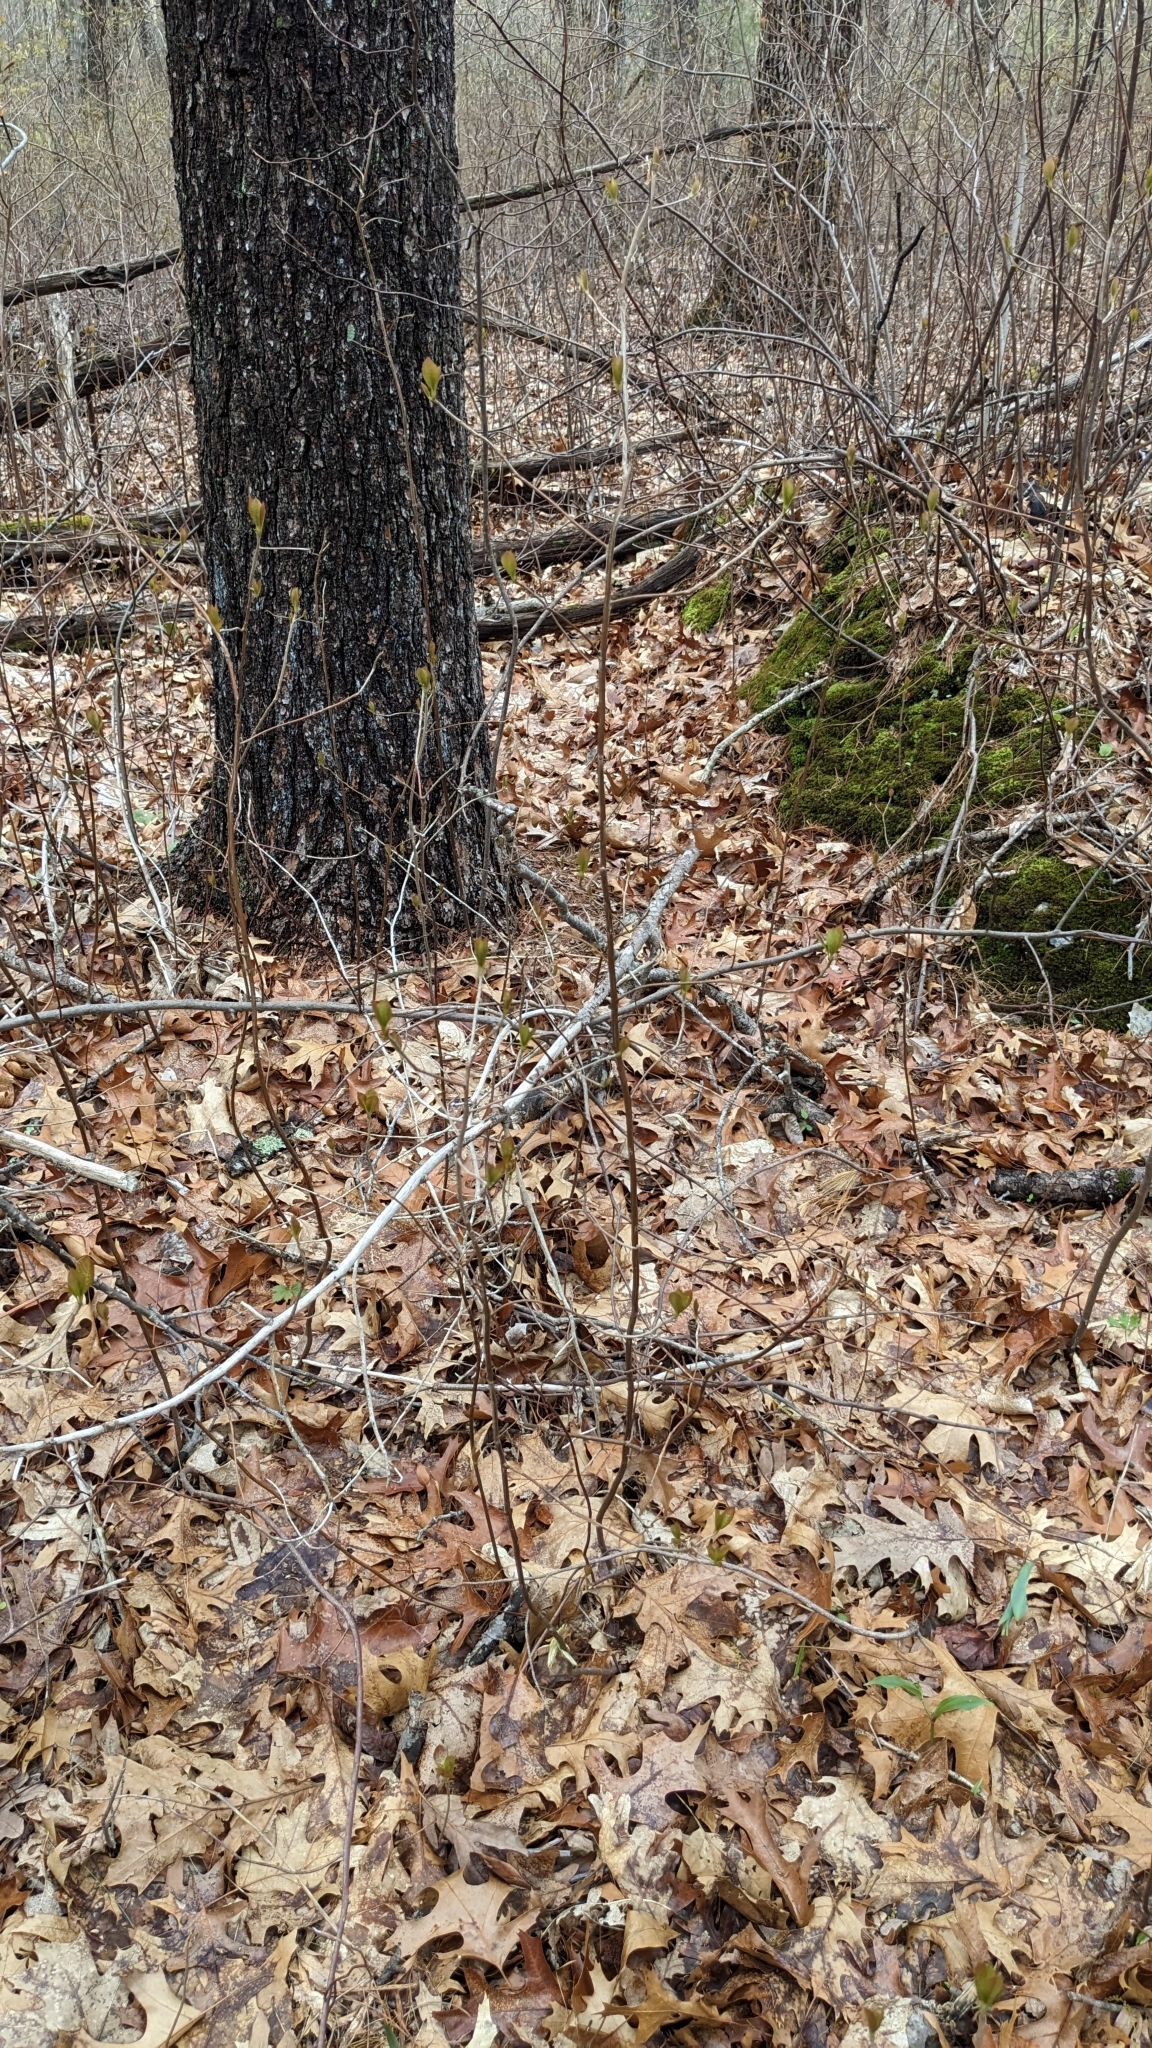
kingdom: Plantae
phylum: Tracheophyta
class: Magnoliopsida
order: Ericales
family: Clethraceae
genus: Clethra
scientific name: Clethra alnifolia
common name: Sweet pepperbush
